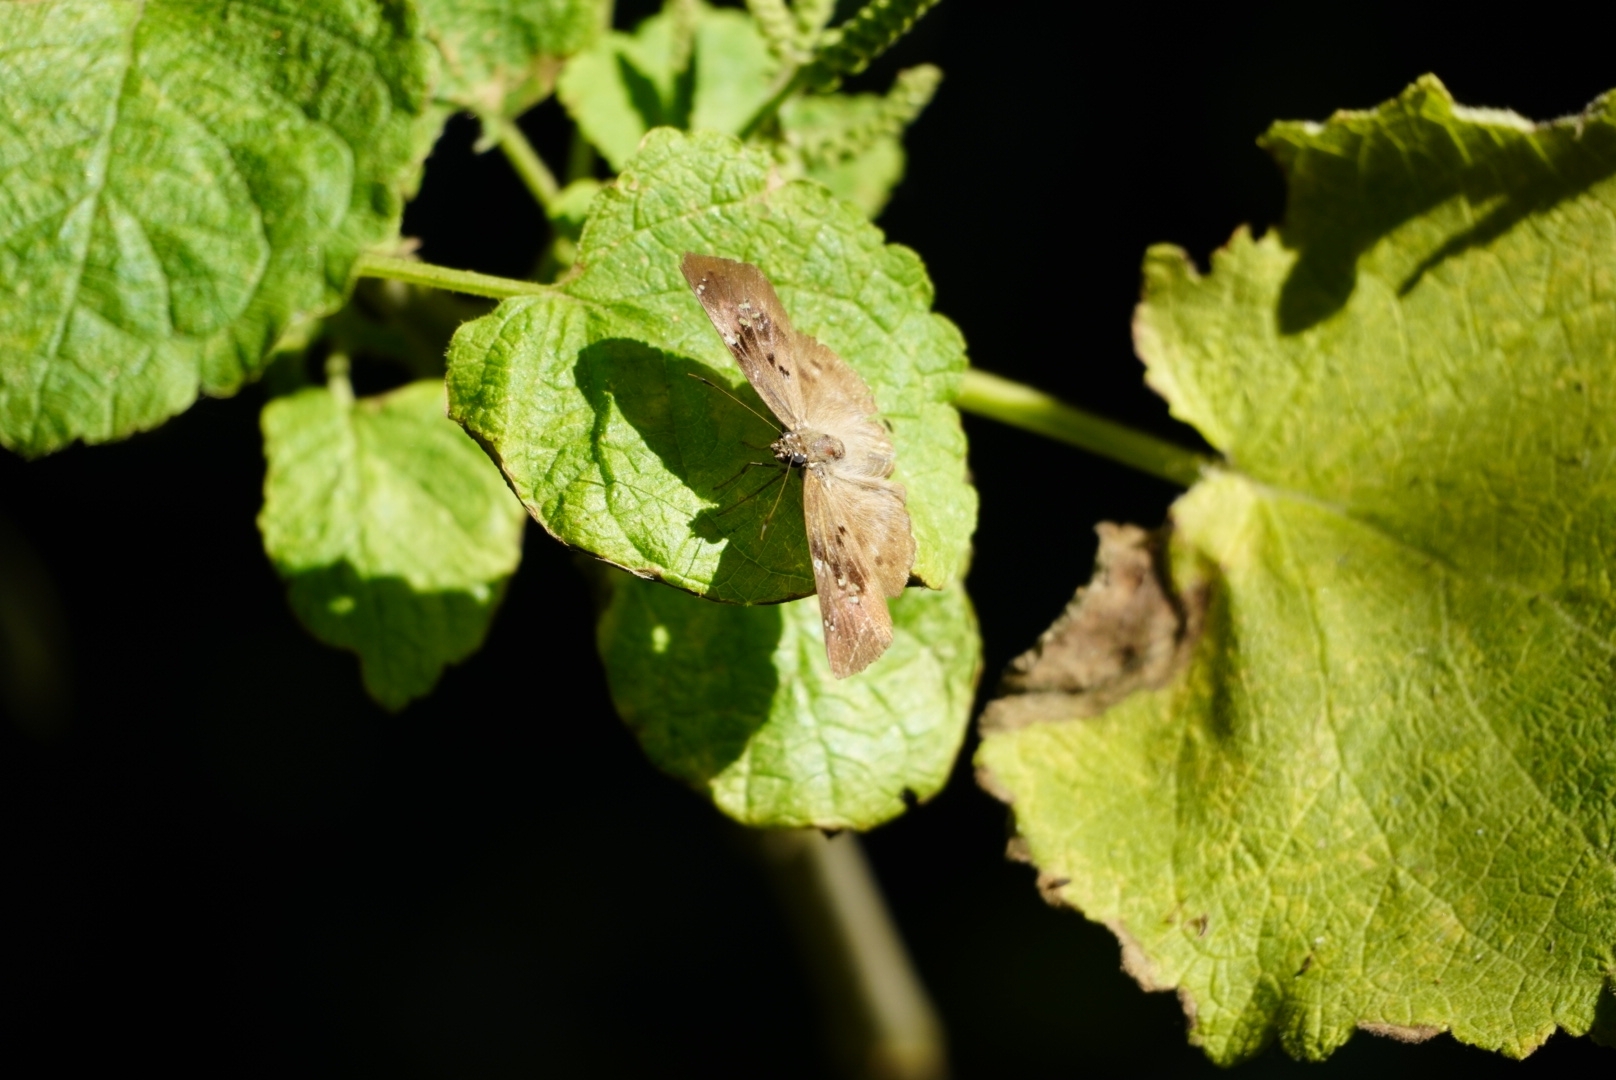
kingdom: Animalia
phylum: Arthropoda
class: Insecta
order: Lepidoptera
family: Hesperiidae
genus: Tagiades
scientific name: Tagiades flesus
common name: Clouded flat
